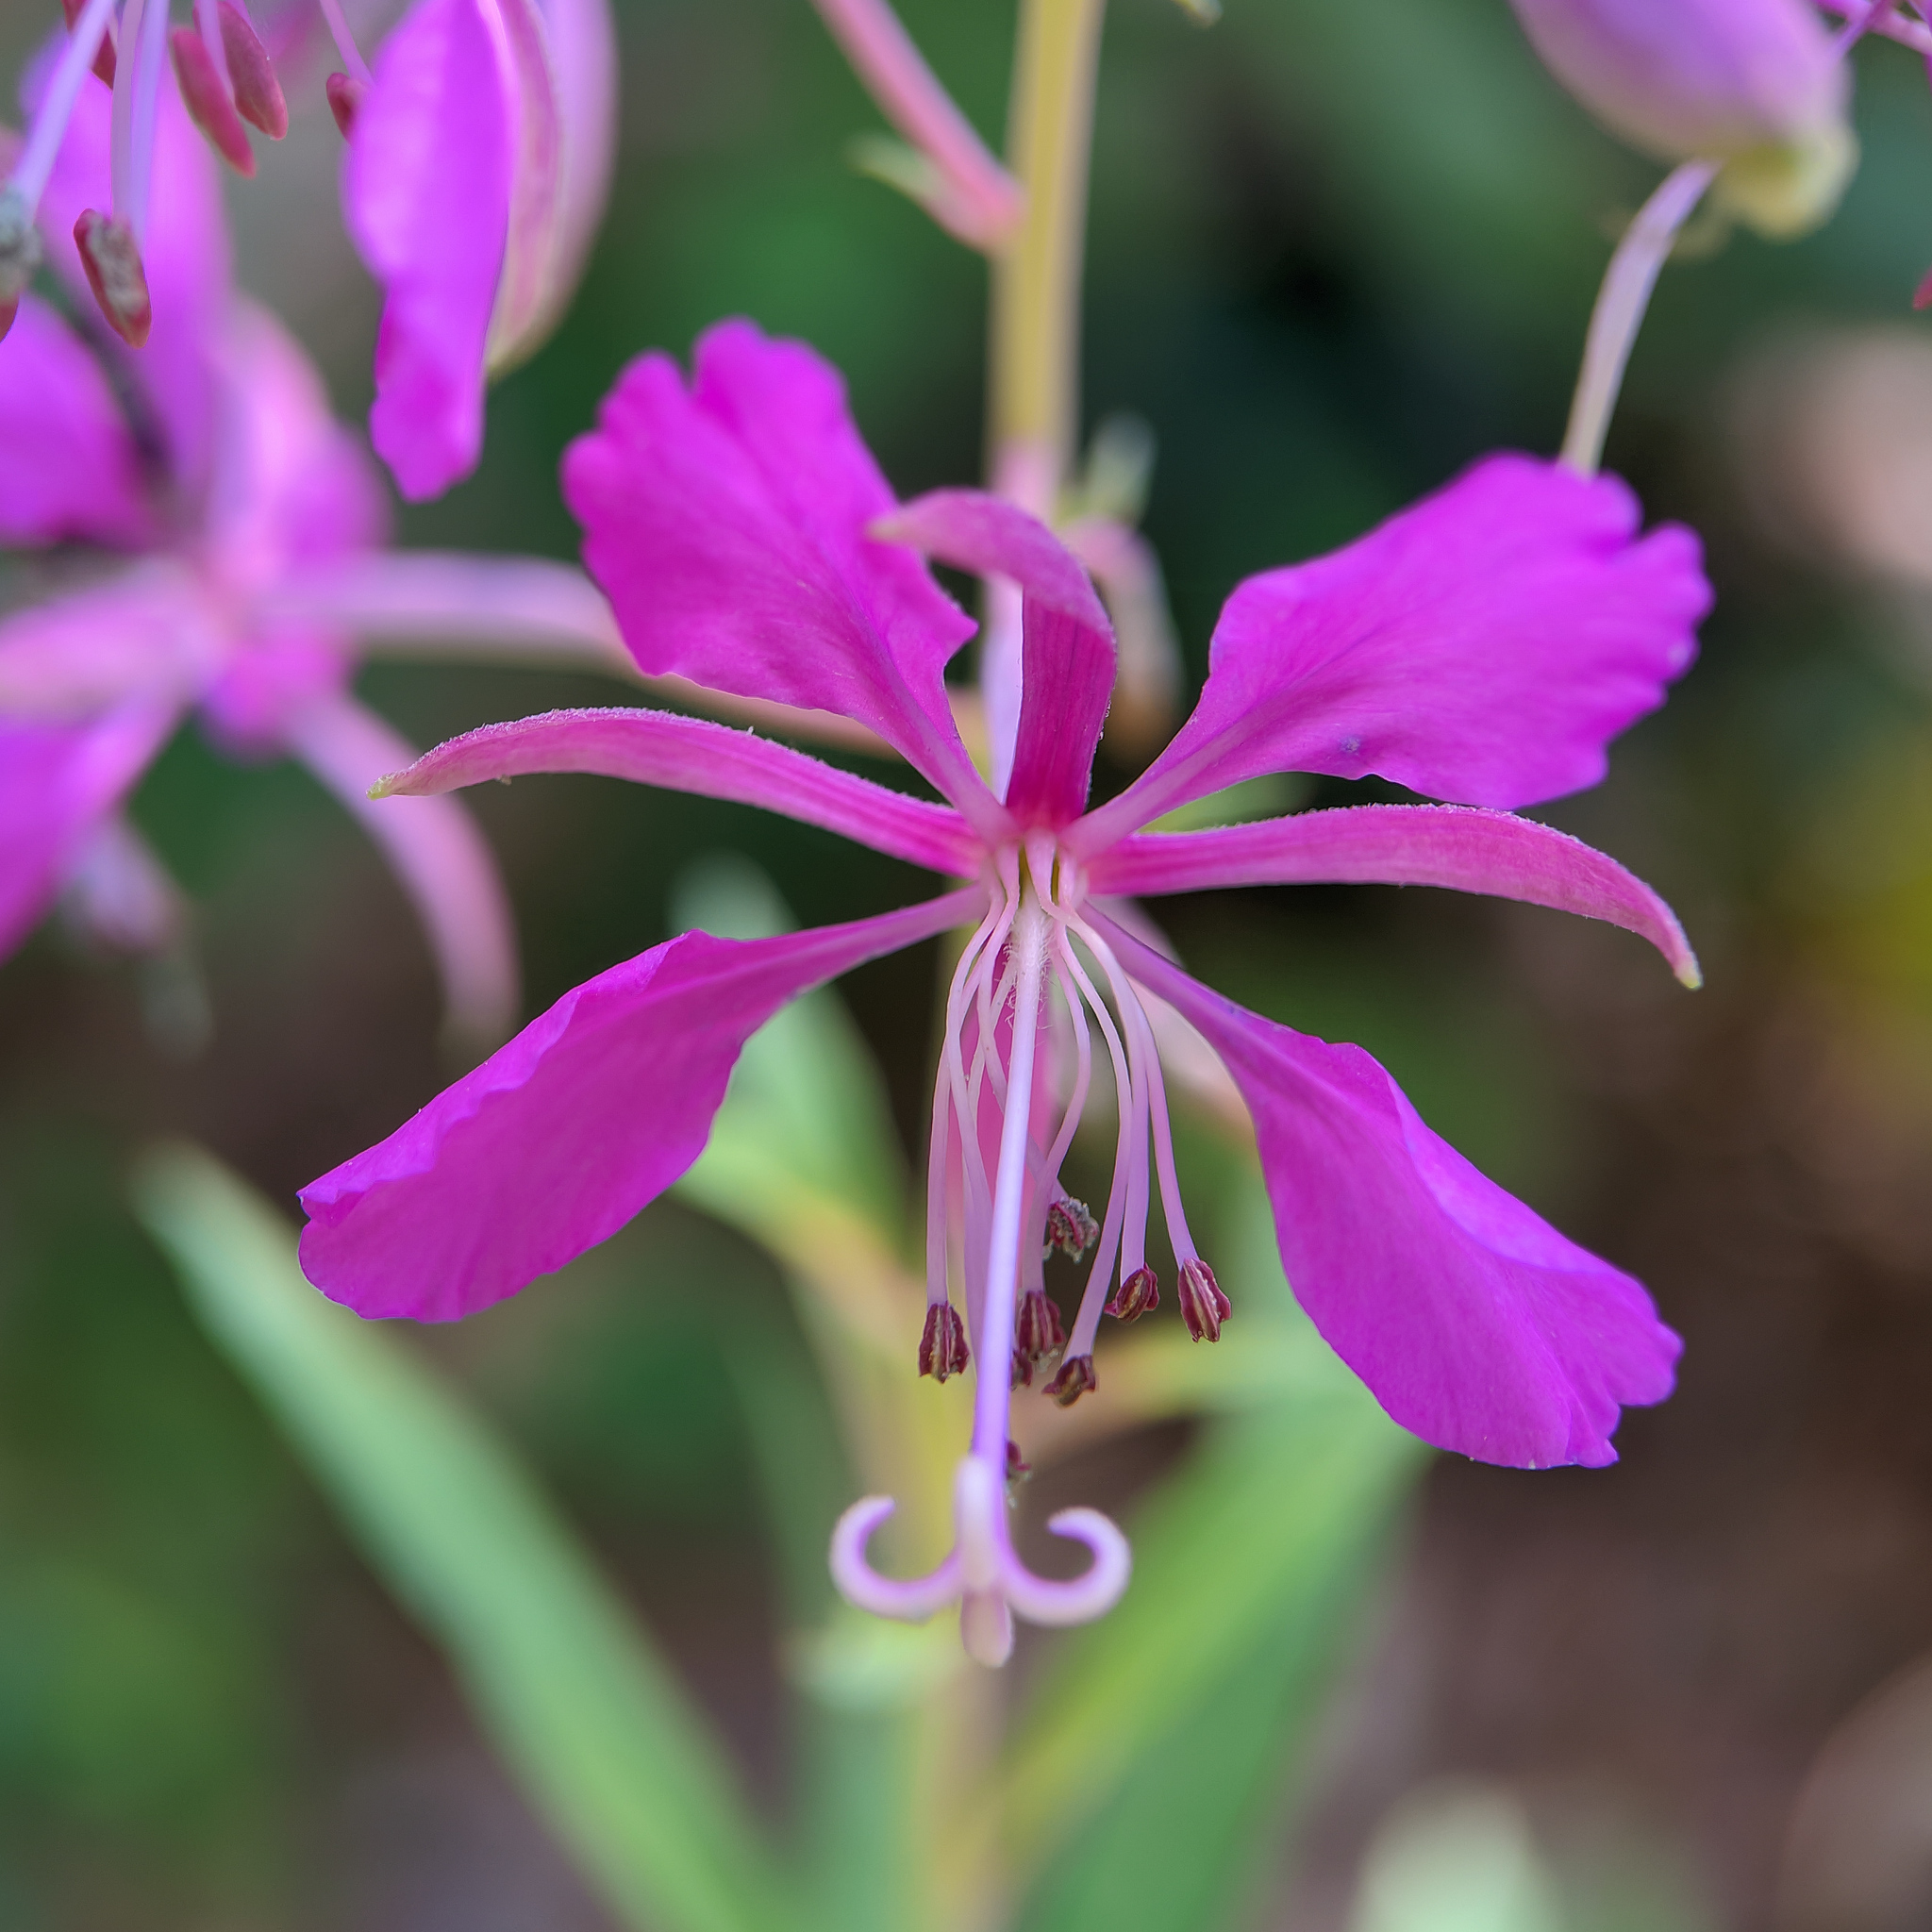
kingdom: Plantae
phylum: Tracheophyta
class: Magnoliopsida
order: Myrtales
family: Onagraceae
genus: Chamaenerion
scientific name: Chamaenerion angustifolium
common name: Fireweed
